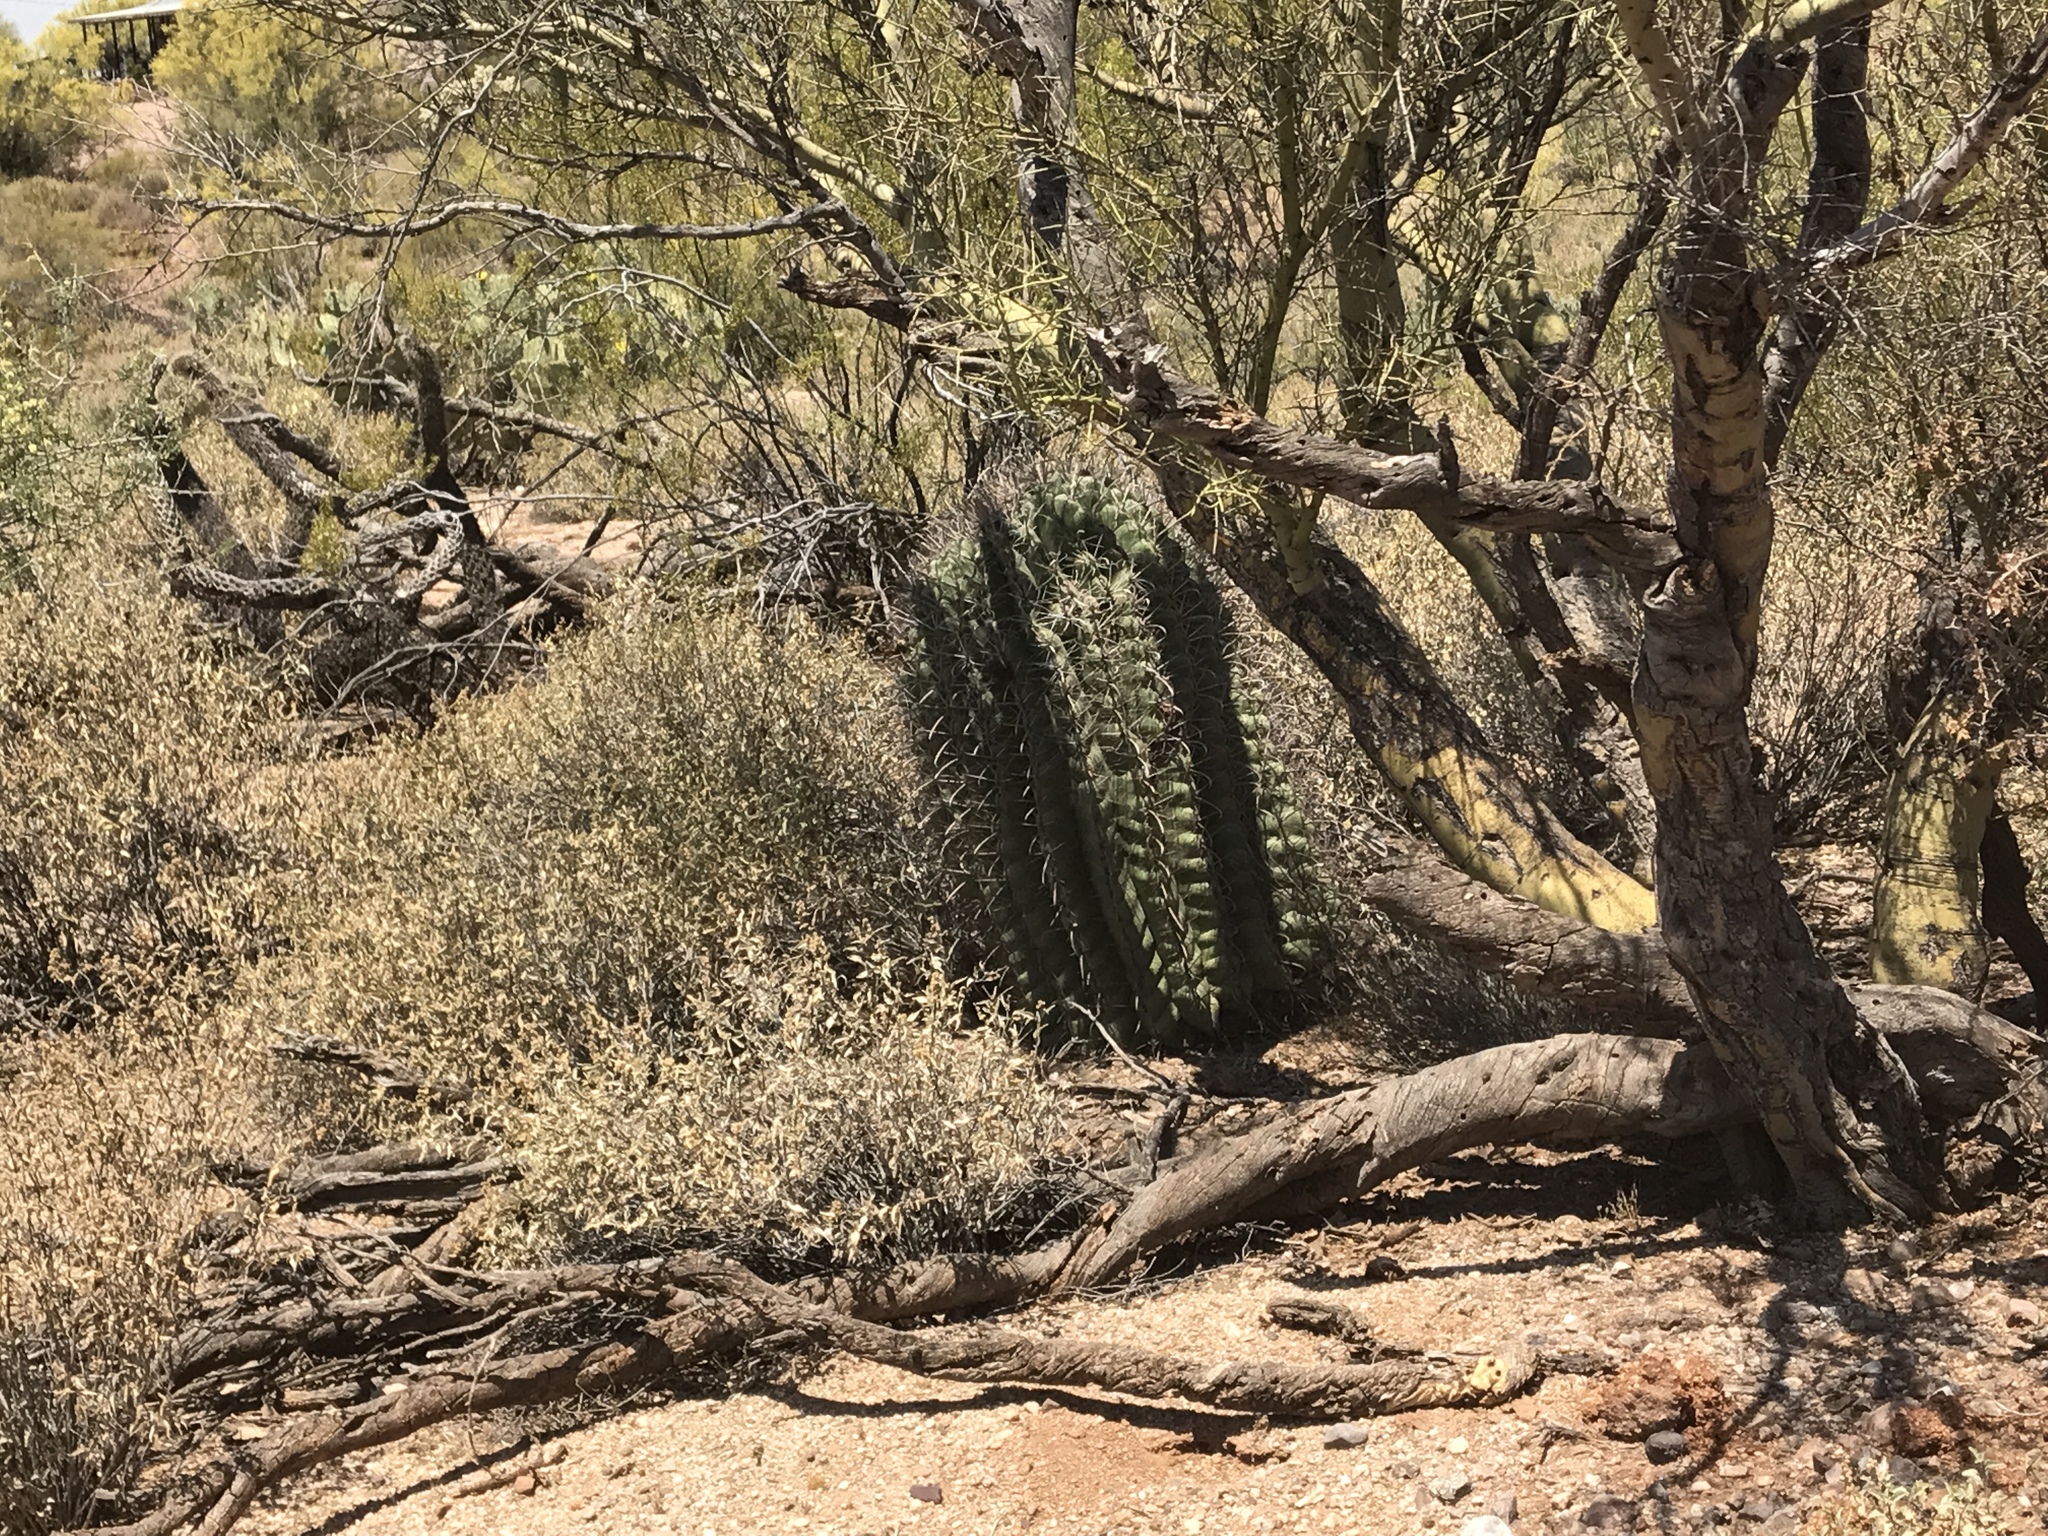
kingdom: Plantae
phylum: Tracheophyta
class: Magnoliopsida
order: Caryophyllales
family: Cactaceae
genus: Ferocactus
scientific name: Ferocactus wislizeni
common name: Candy barrel cactus
